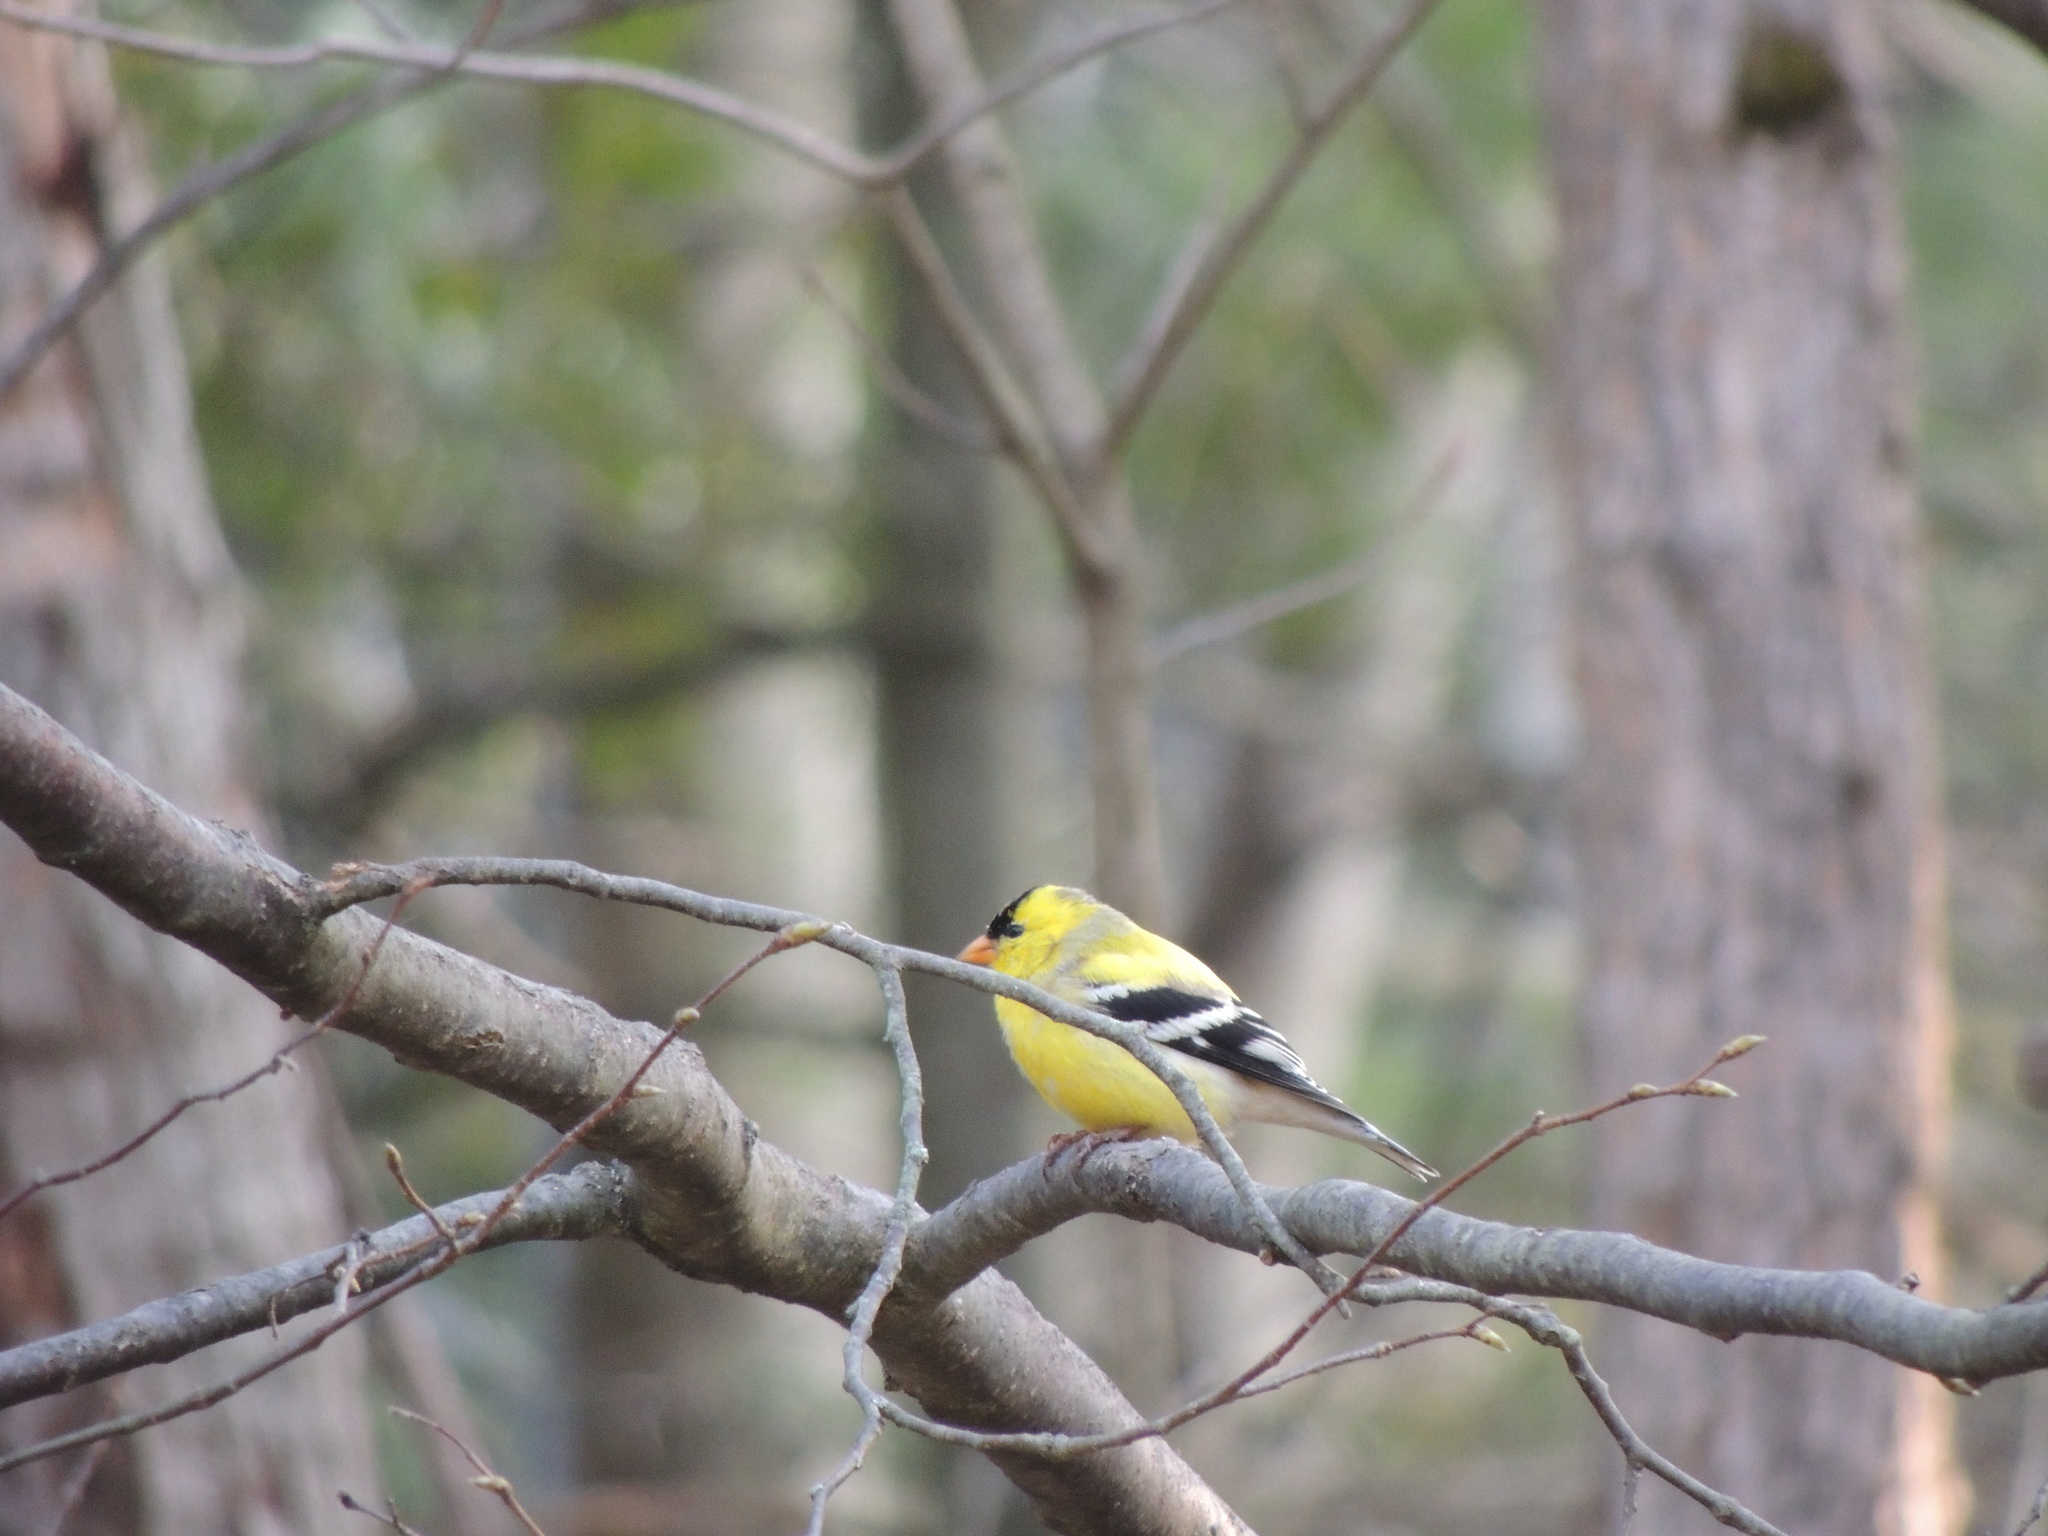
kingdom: Animalia
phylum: Chordata
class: Aves
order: Passeriformes
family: Fringillidae
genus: Spinus
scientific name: Spinus tristis
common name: American goldfinch
